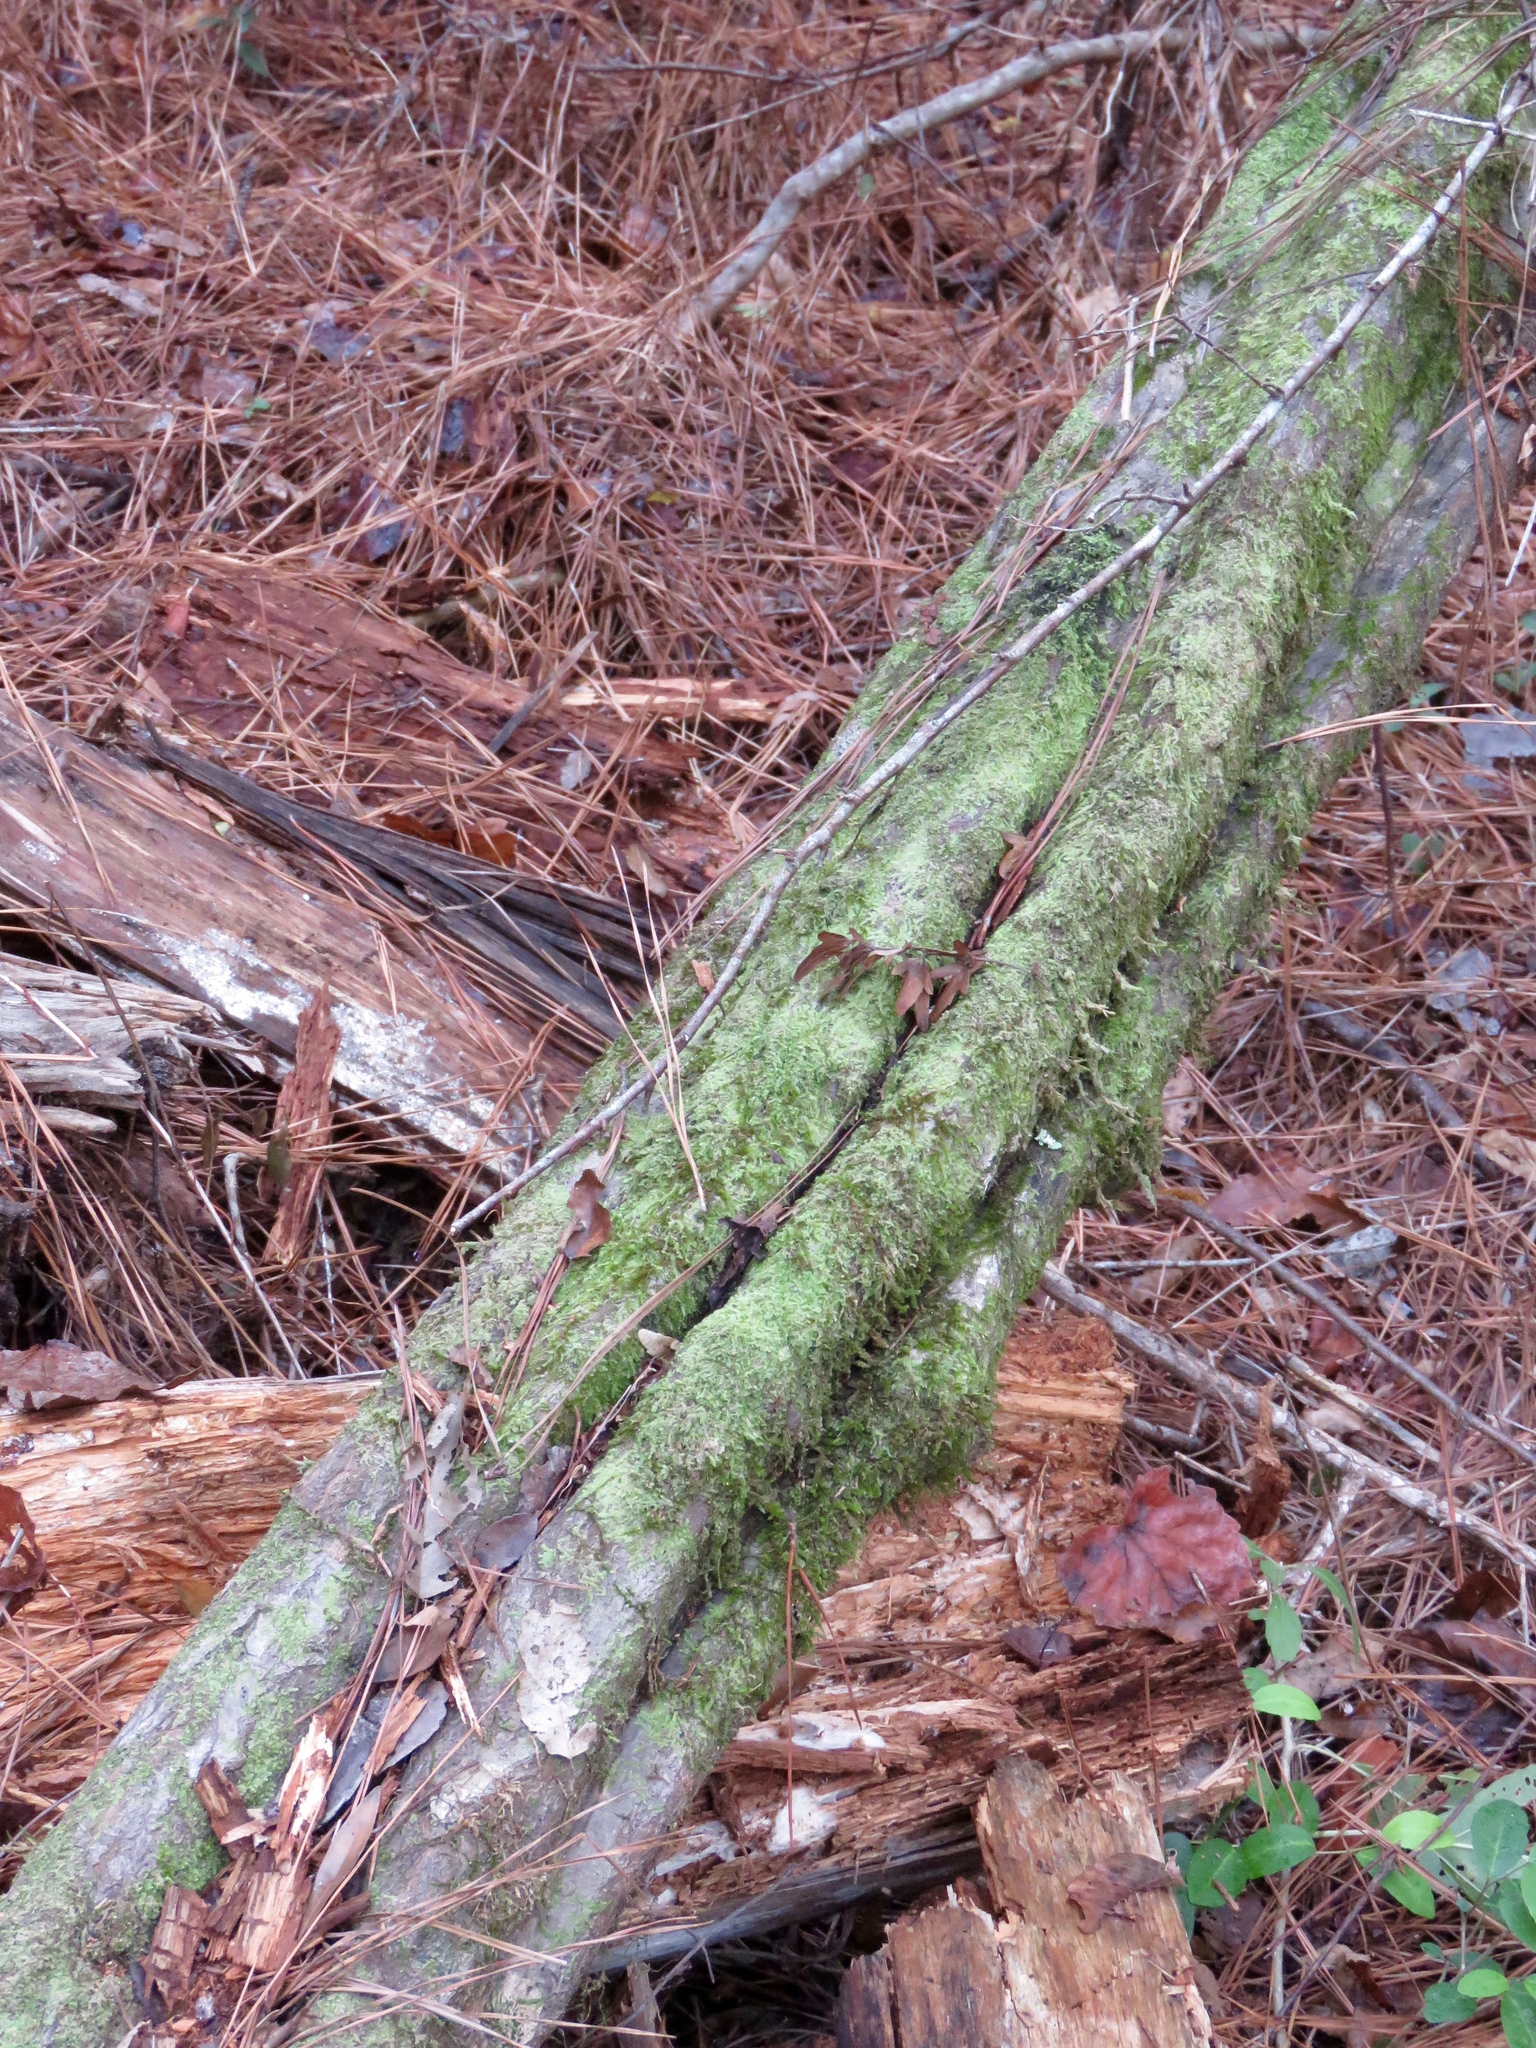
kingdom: Plantae
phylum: Tracheophyta
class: Magnoliopsida
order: Fagales
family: Betulaceae
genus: Carpinus
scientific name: Carpinus caroliniana
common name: American hornbeam
